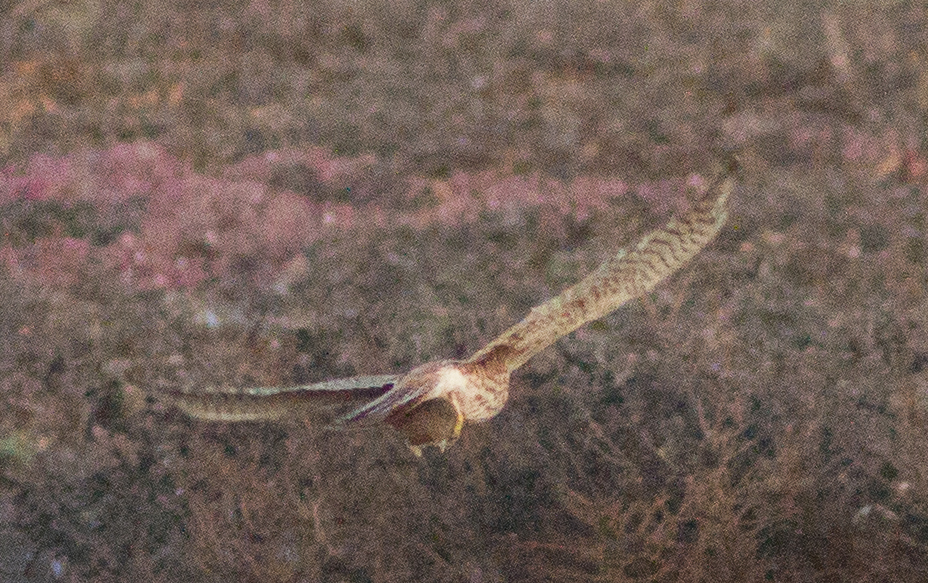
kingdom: Animalia
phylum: Chordata
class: Aves
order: Falconiformes
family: Falconidae
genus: Falco
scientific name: Falco sparverius
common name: American kestrel
